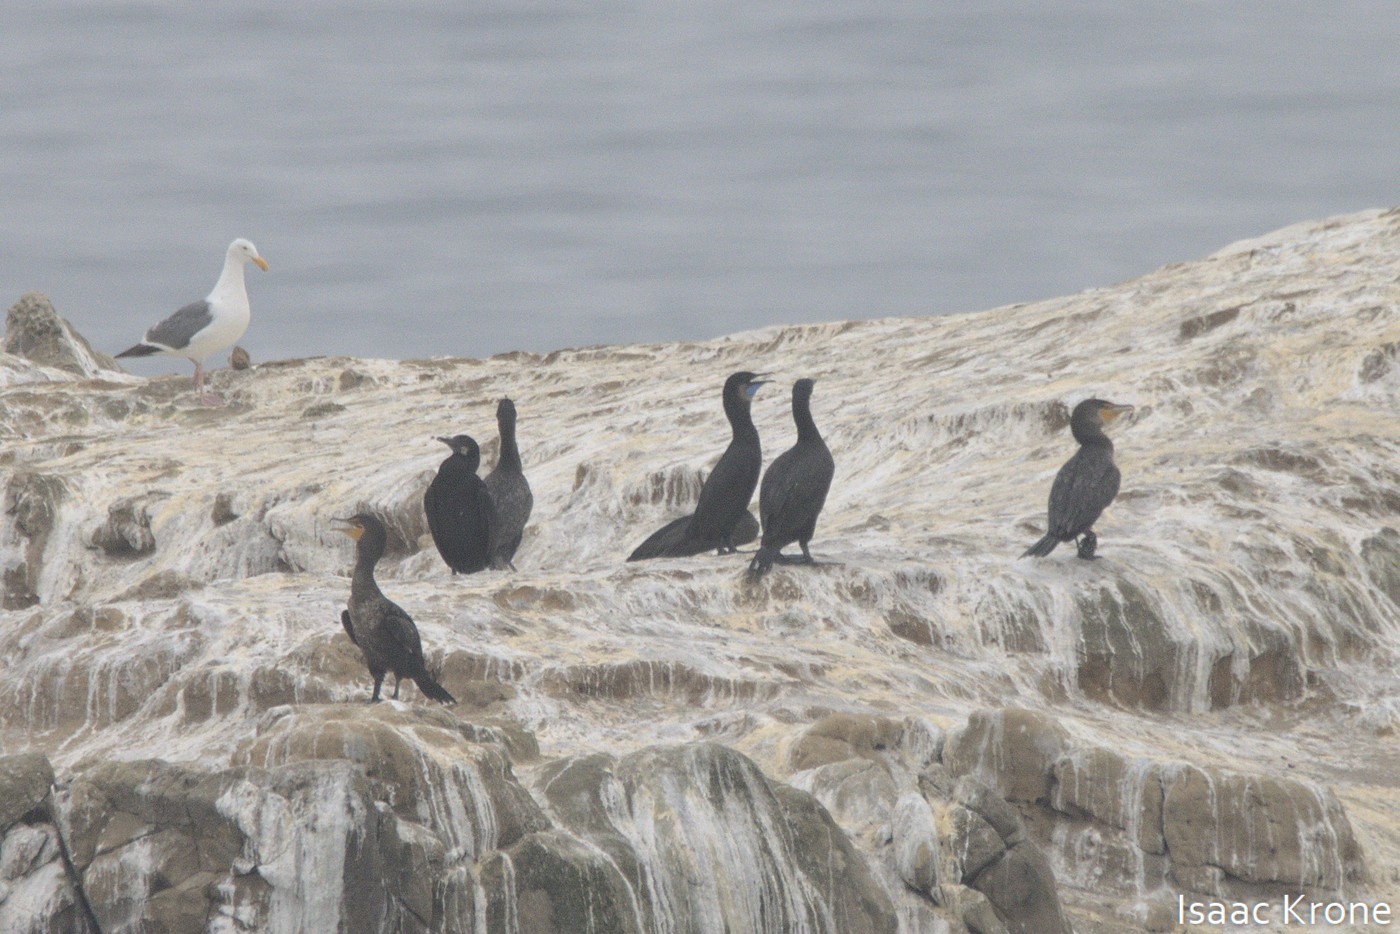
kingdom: Animalia
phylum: Chordata
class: Aves
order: Suliformes
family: Phalacrocoracidae
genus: Urile
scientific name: Urile penicillatus
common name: Brandt's cormorant
